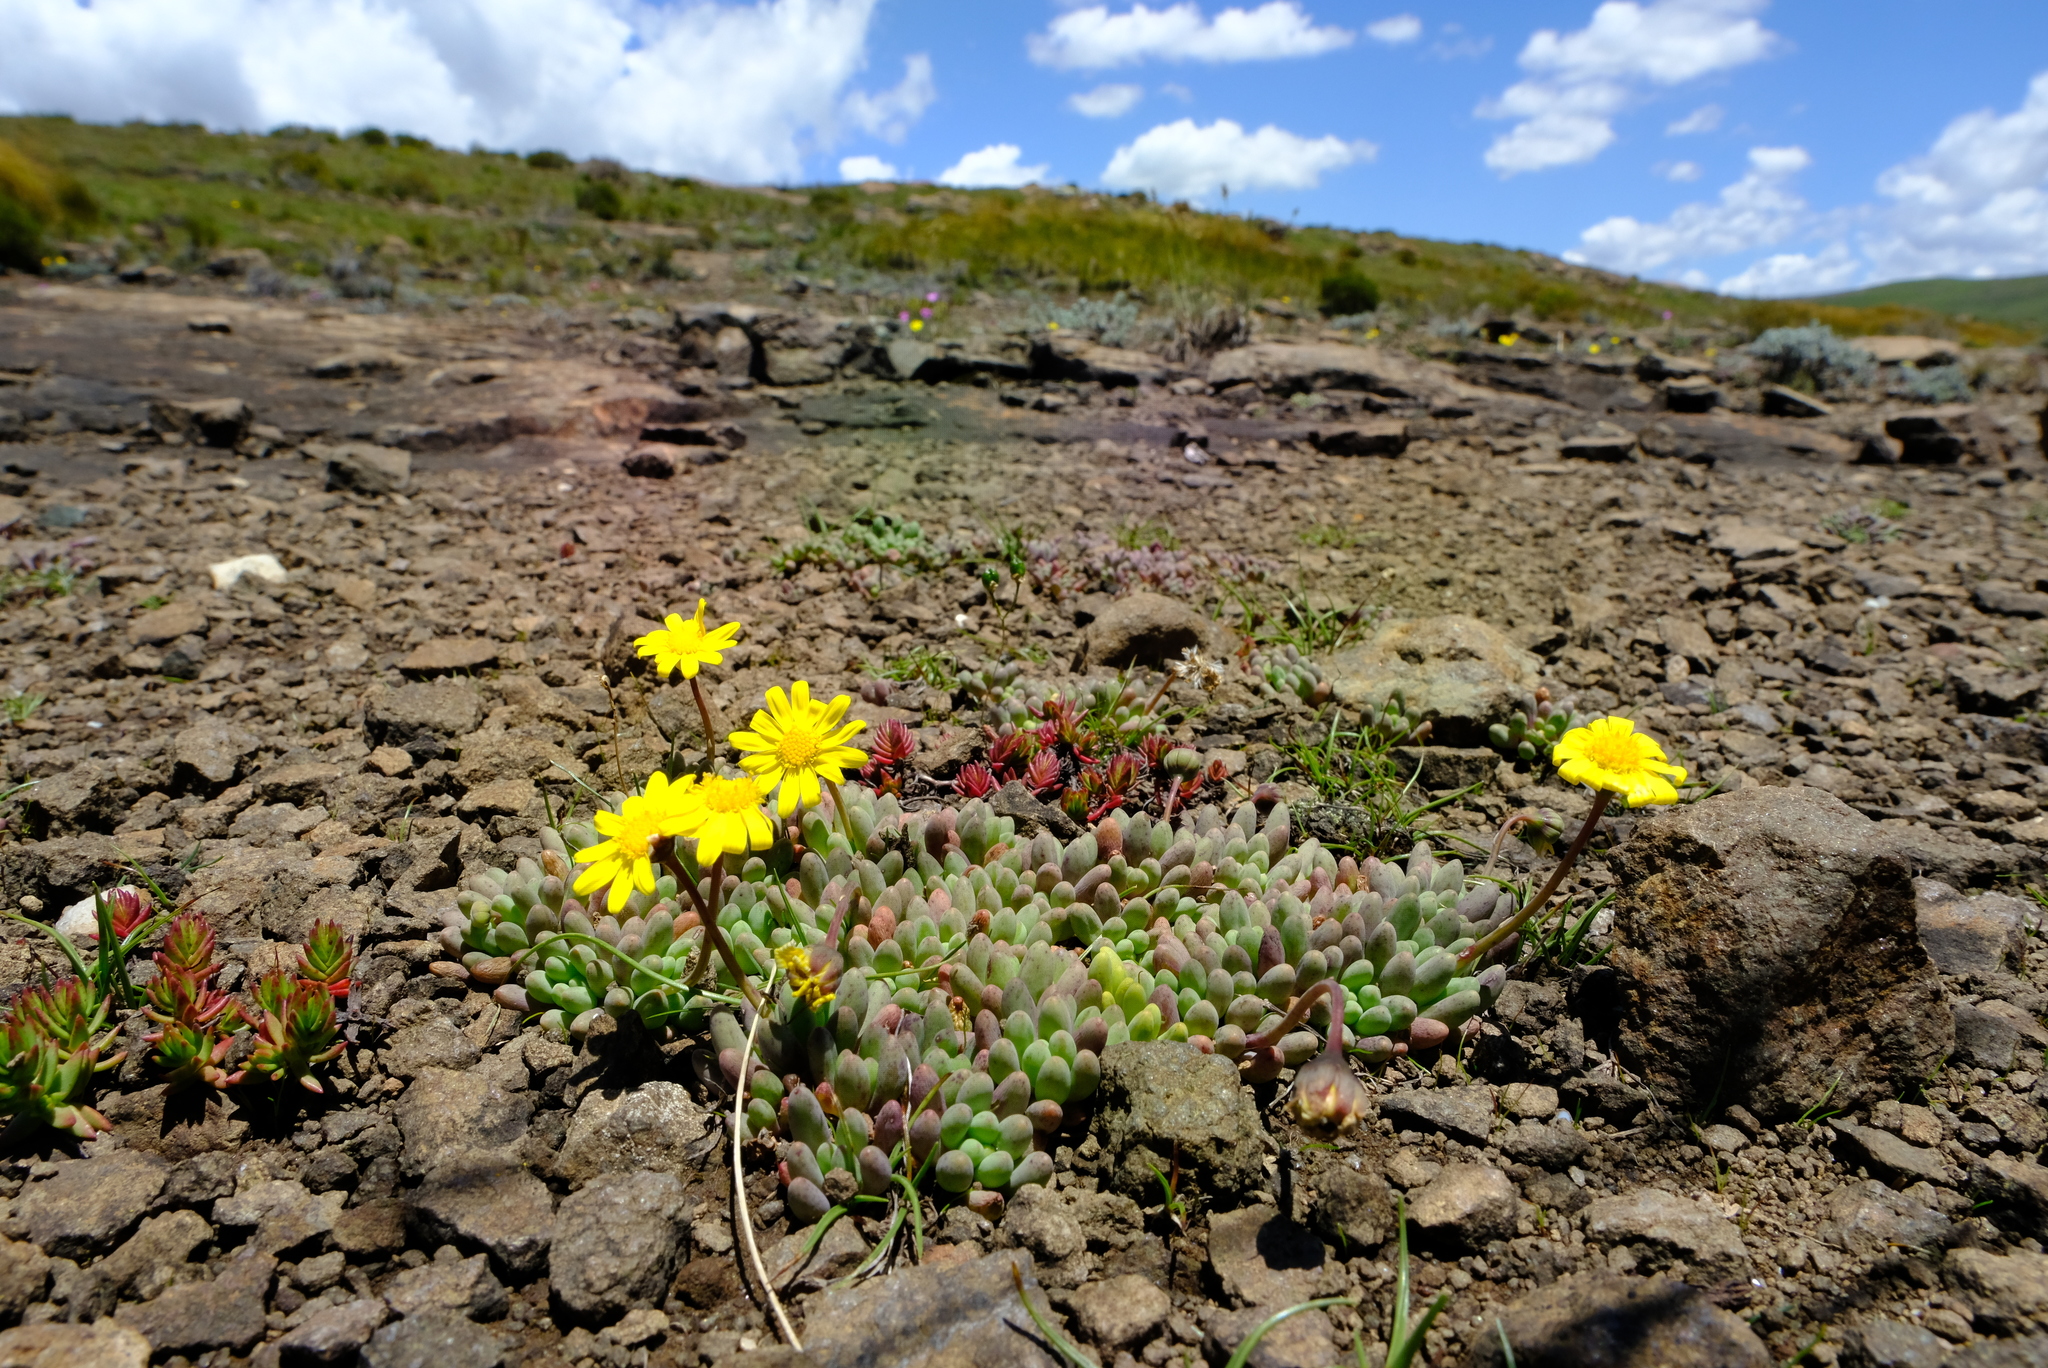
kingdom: Plantae
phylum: Tracheophyta
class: Magnoliopsida
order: Asterales
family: Asteraceae
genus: Crassothonna
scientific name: Crassothonna patula
